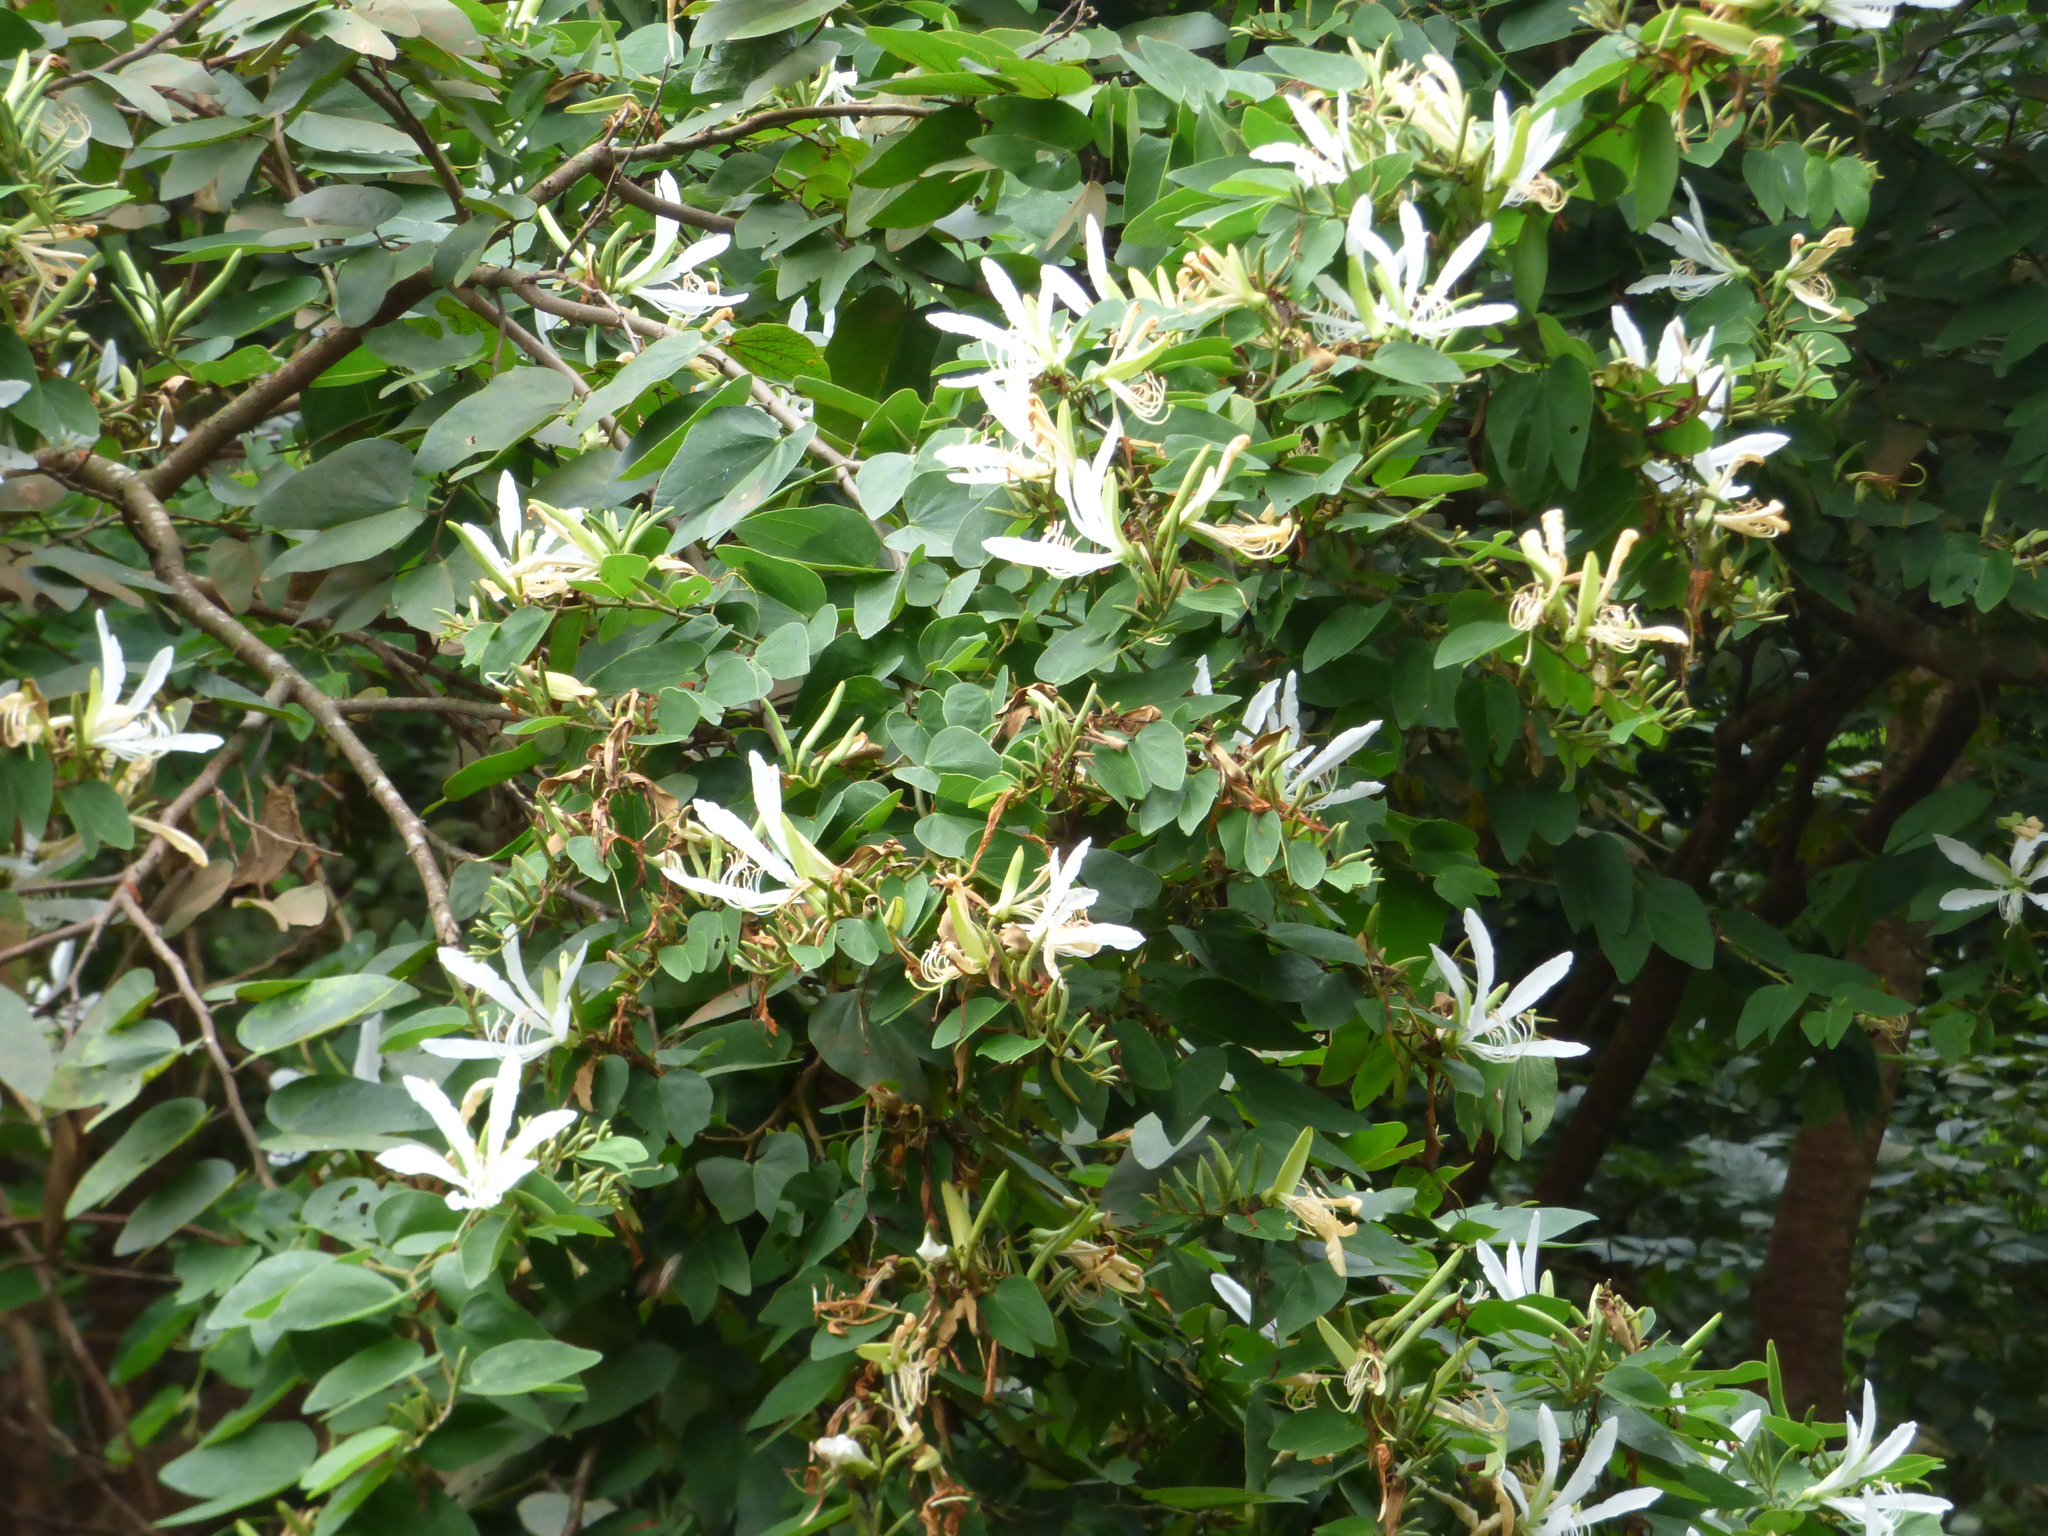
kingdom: Plantae
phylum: Tracheophyta
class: Magnoliopsida
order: Fabales
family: Fabaceae
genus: Bauhinia
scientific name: Bauhinia forficata
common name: Orchid tree
